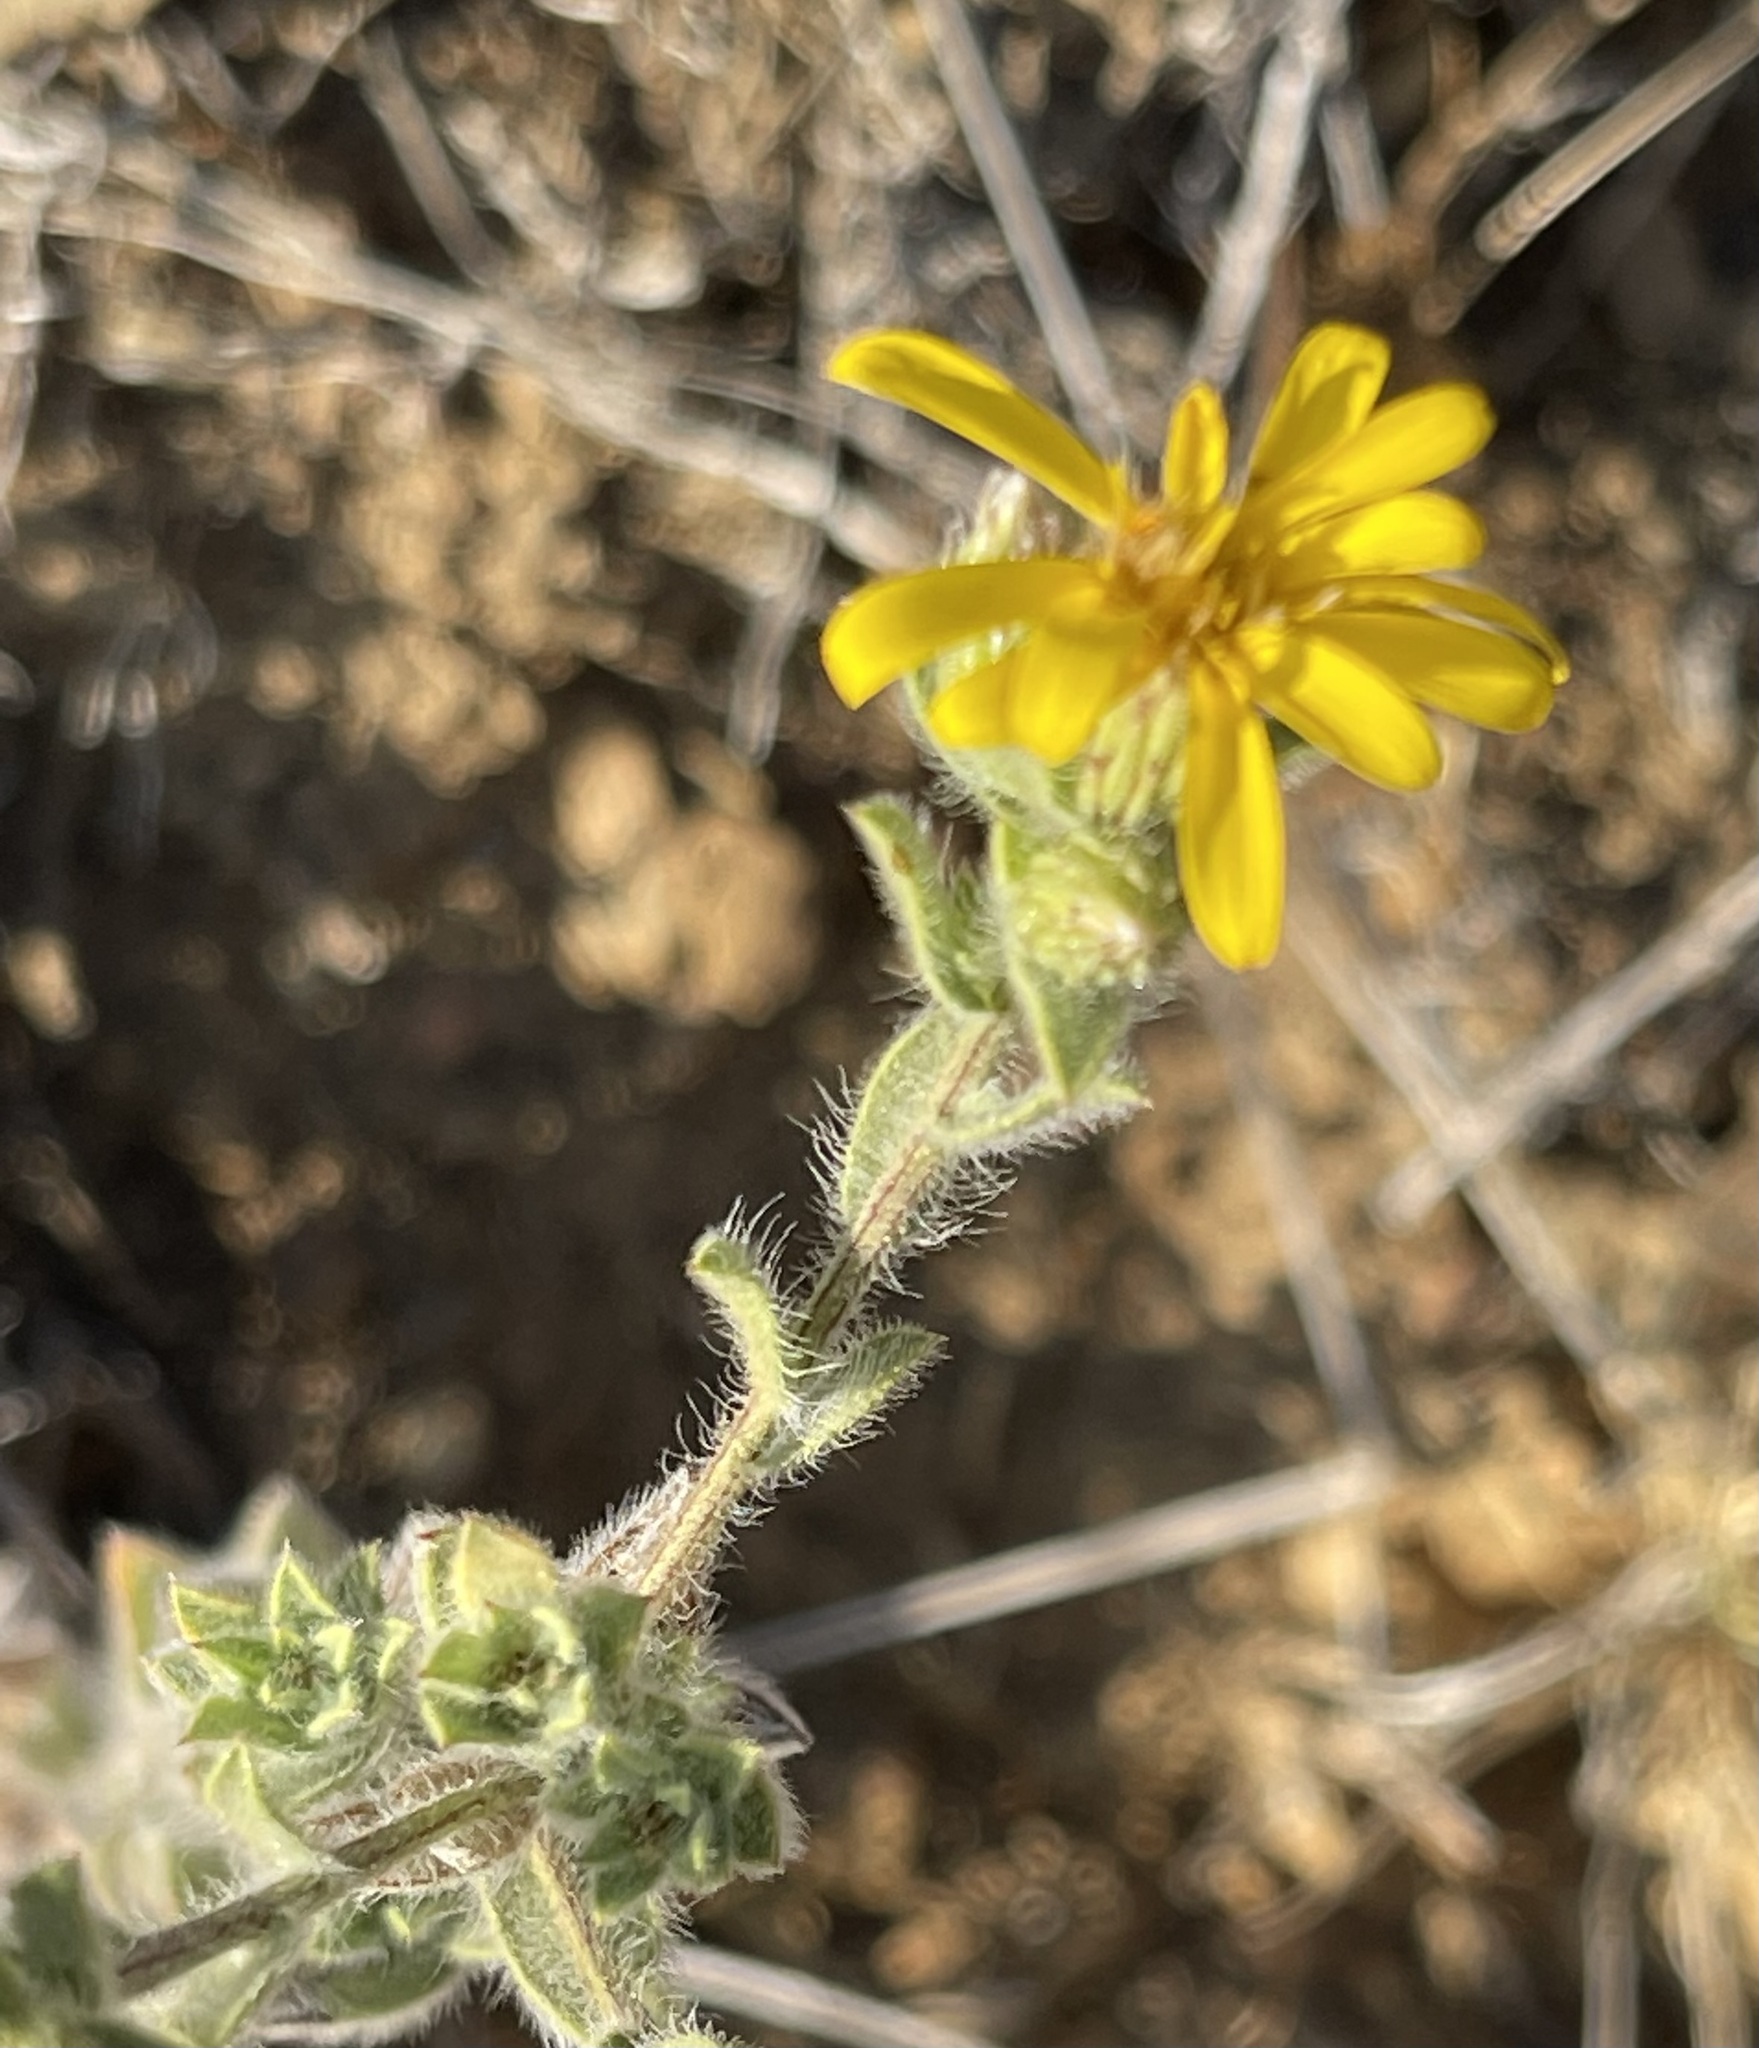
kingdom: Plantae
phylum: Tracheophyta
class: Magnoliopsida
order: Asterales
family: Asteraceae
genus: Heterotheca
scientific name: Heterotheca sessiliflora
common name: Sessile-flower golden-aster
